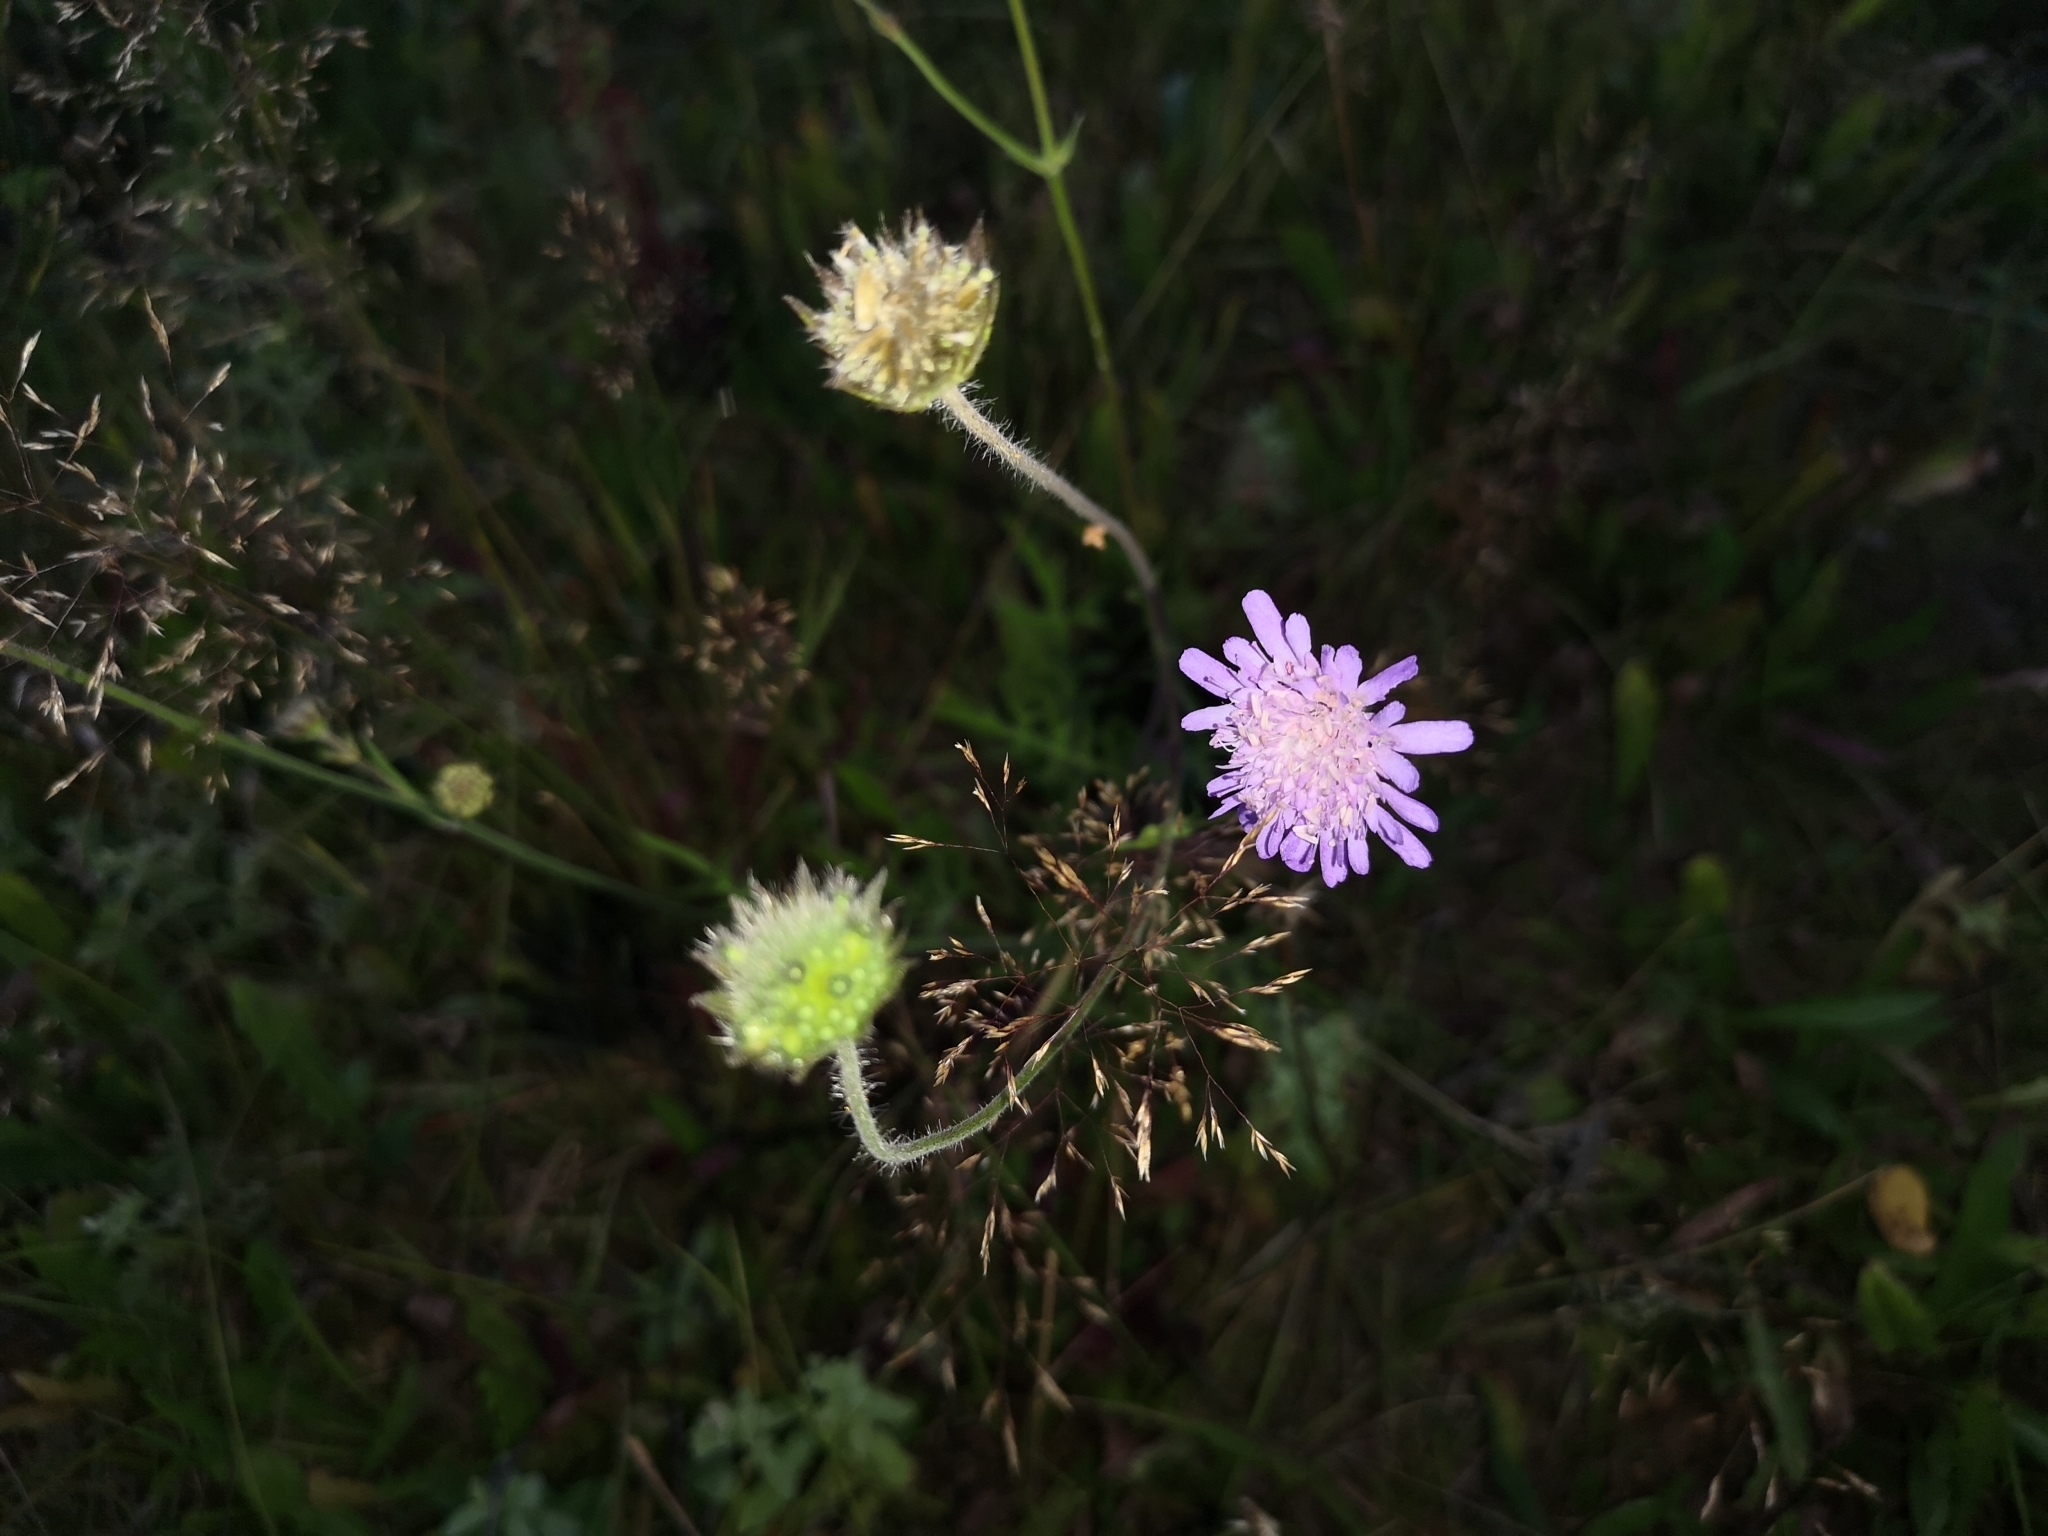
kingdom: Plantae
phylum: Tracheophyta
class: Magnoliopsida
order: Dipsacales
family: Caprifoliaceae
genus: Knautia
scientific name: Knautia arvensis
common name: Field scabiosa
